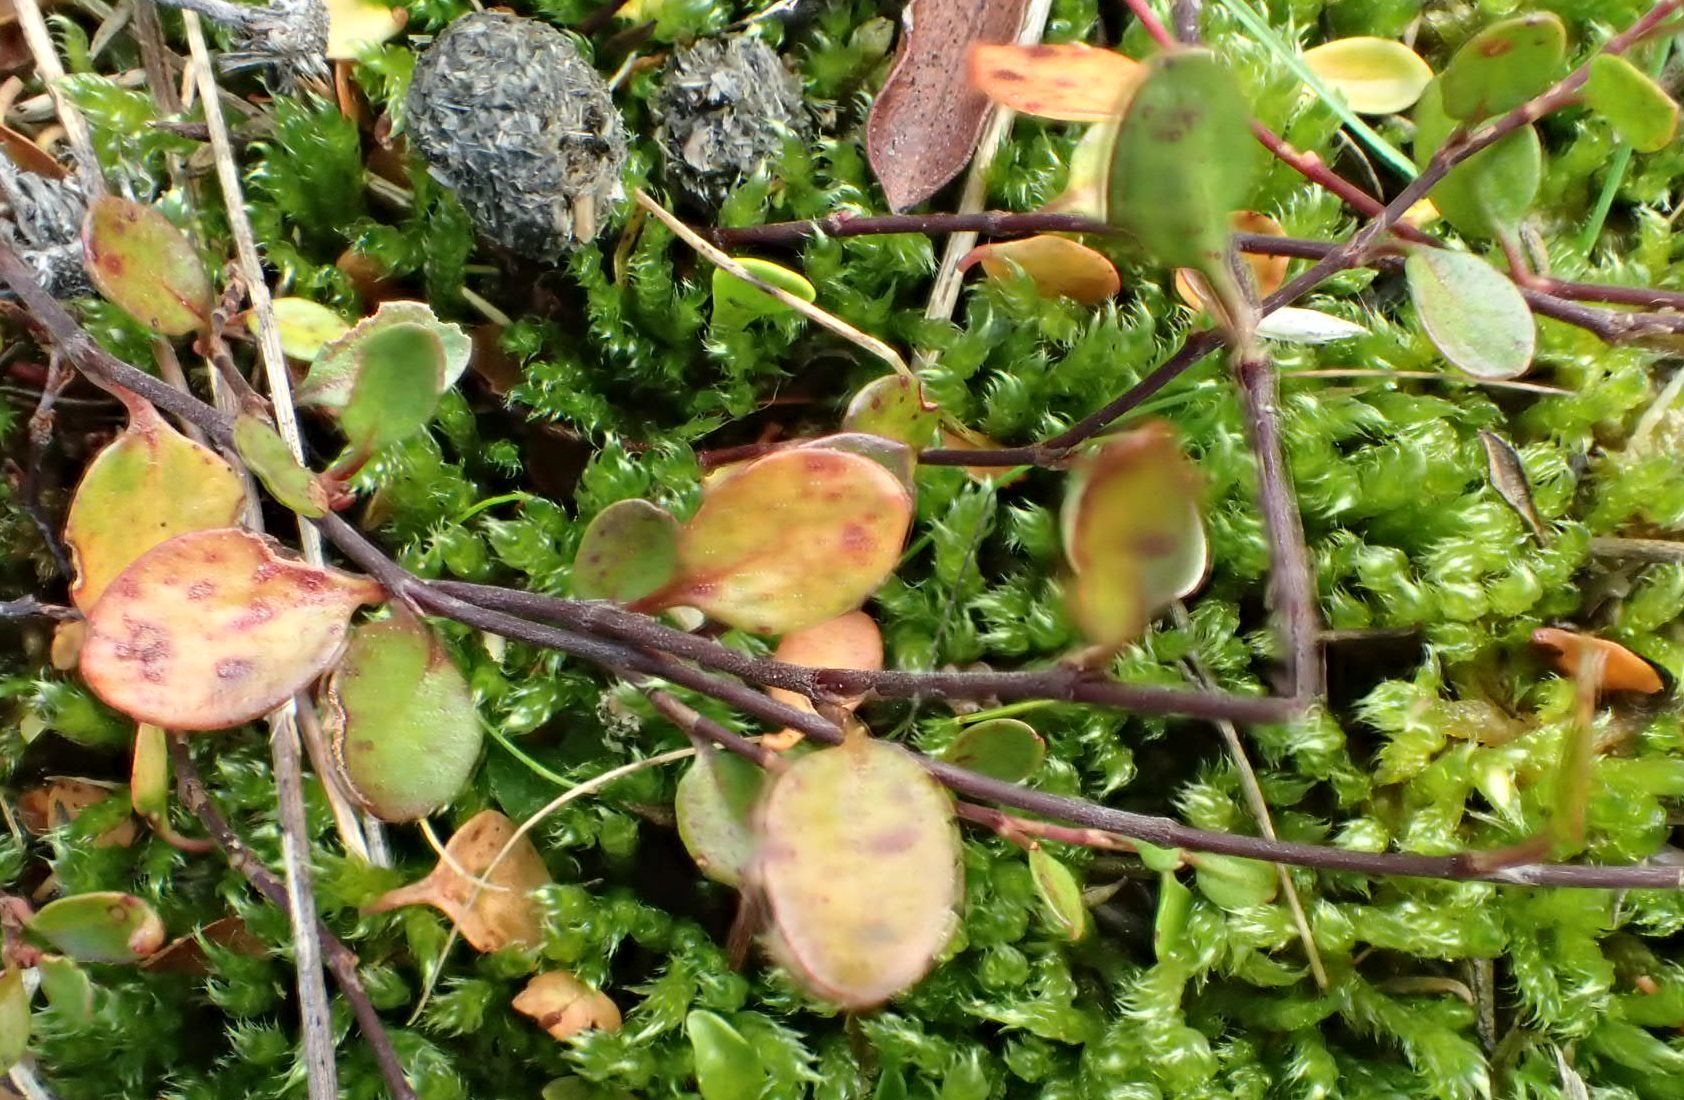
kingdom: Plantae
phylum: Tracheophyta
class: Magnoliopsida
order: Caryophyllales
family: Polygonaceae
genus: Muehlenbeckia
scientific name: Muehlenbeckia axillaris
